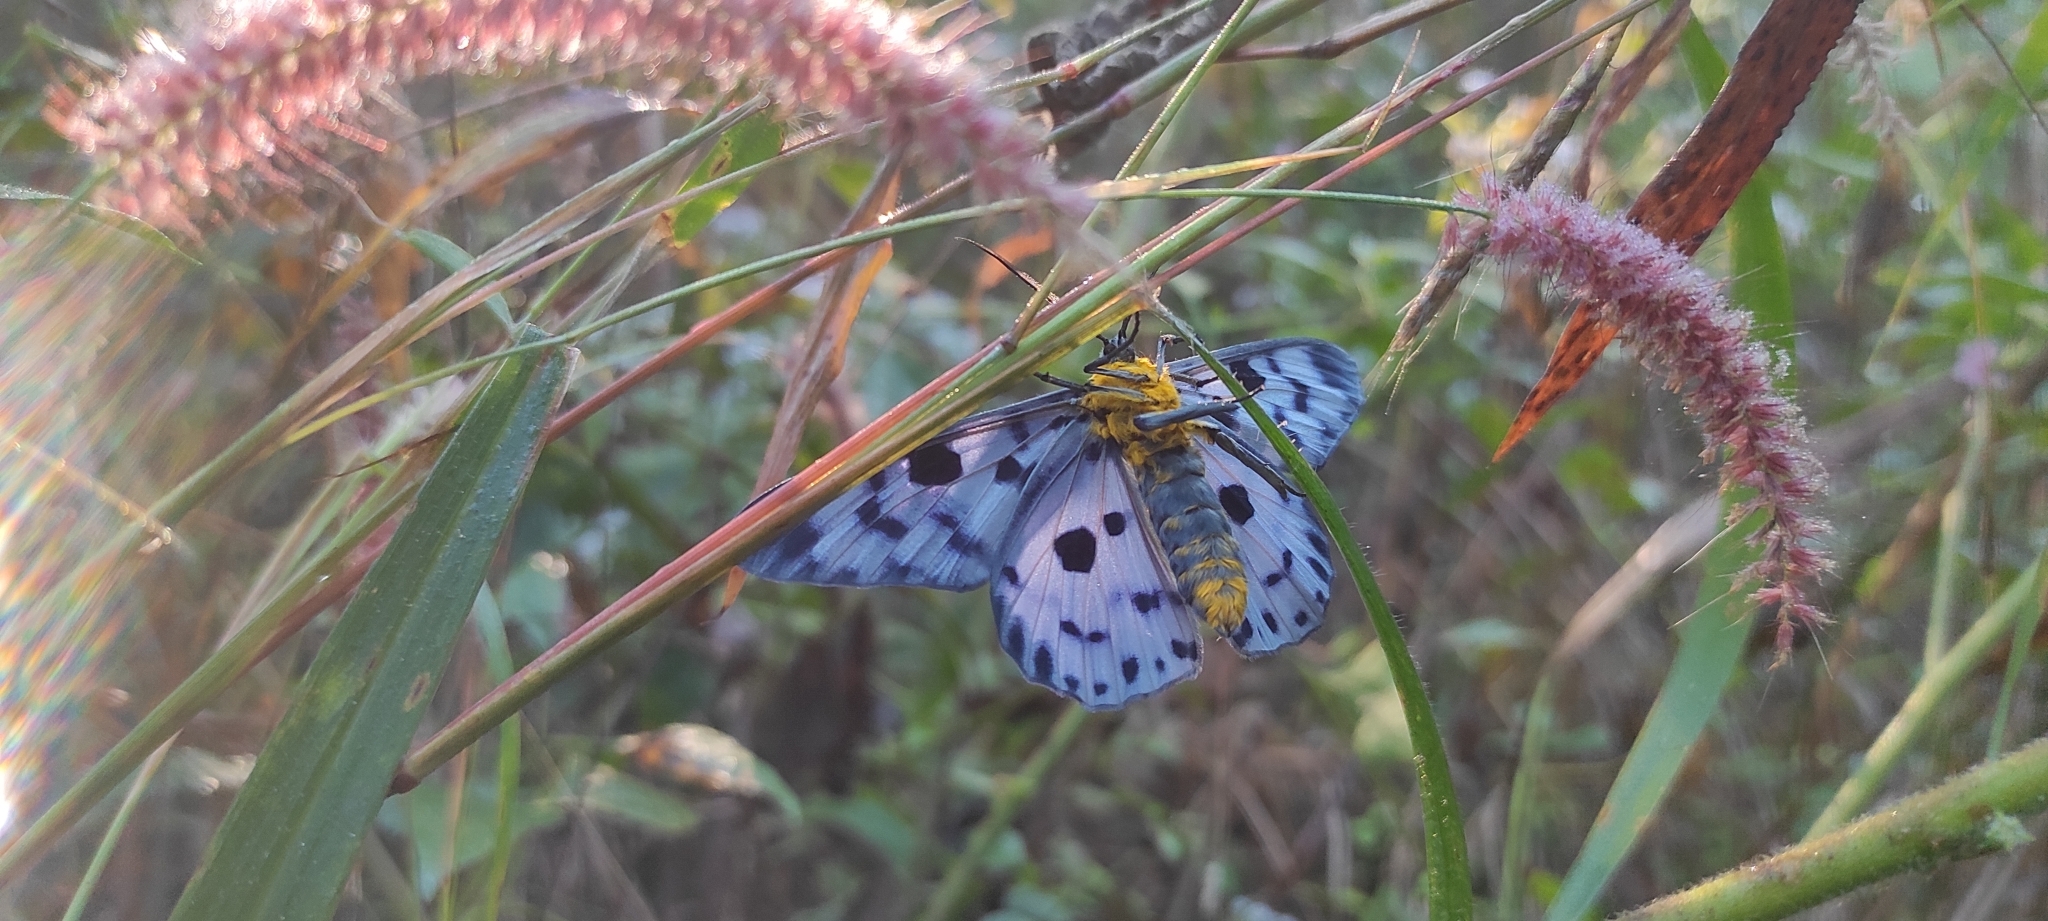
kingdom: Animalia
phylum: Arthropoda
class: Insecta
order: Lepidoptera
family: Geometridae
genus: Dysphania
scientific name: Dysphania palmyra
